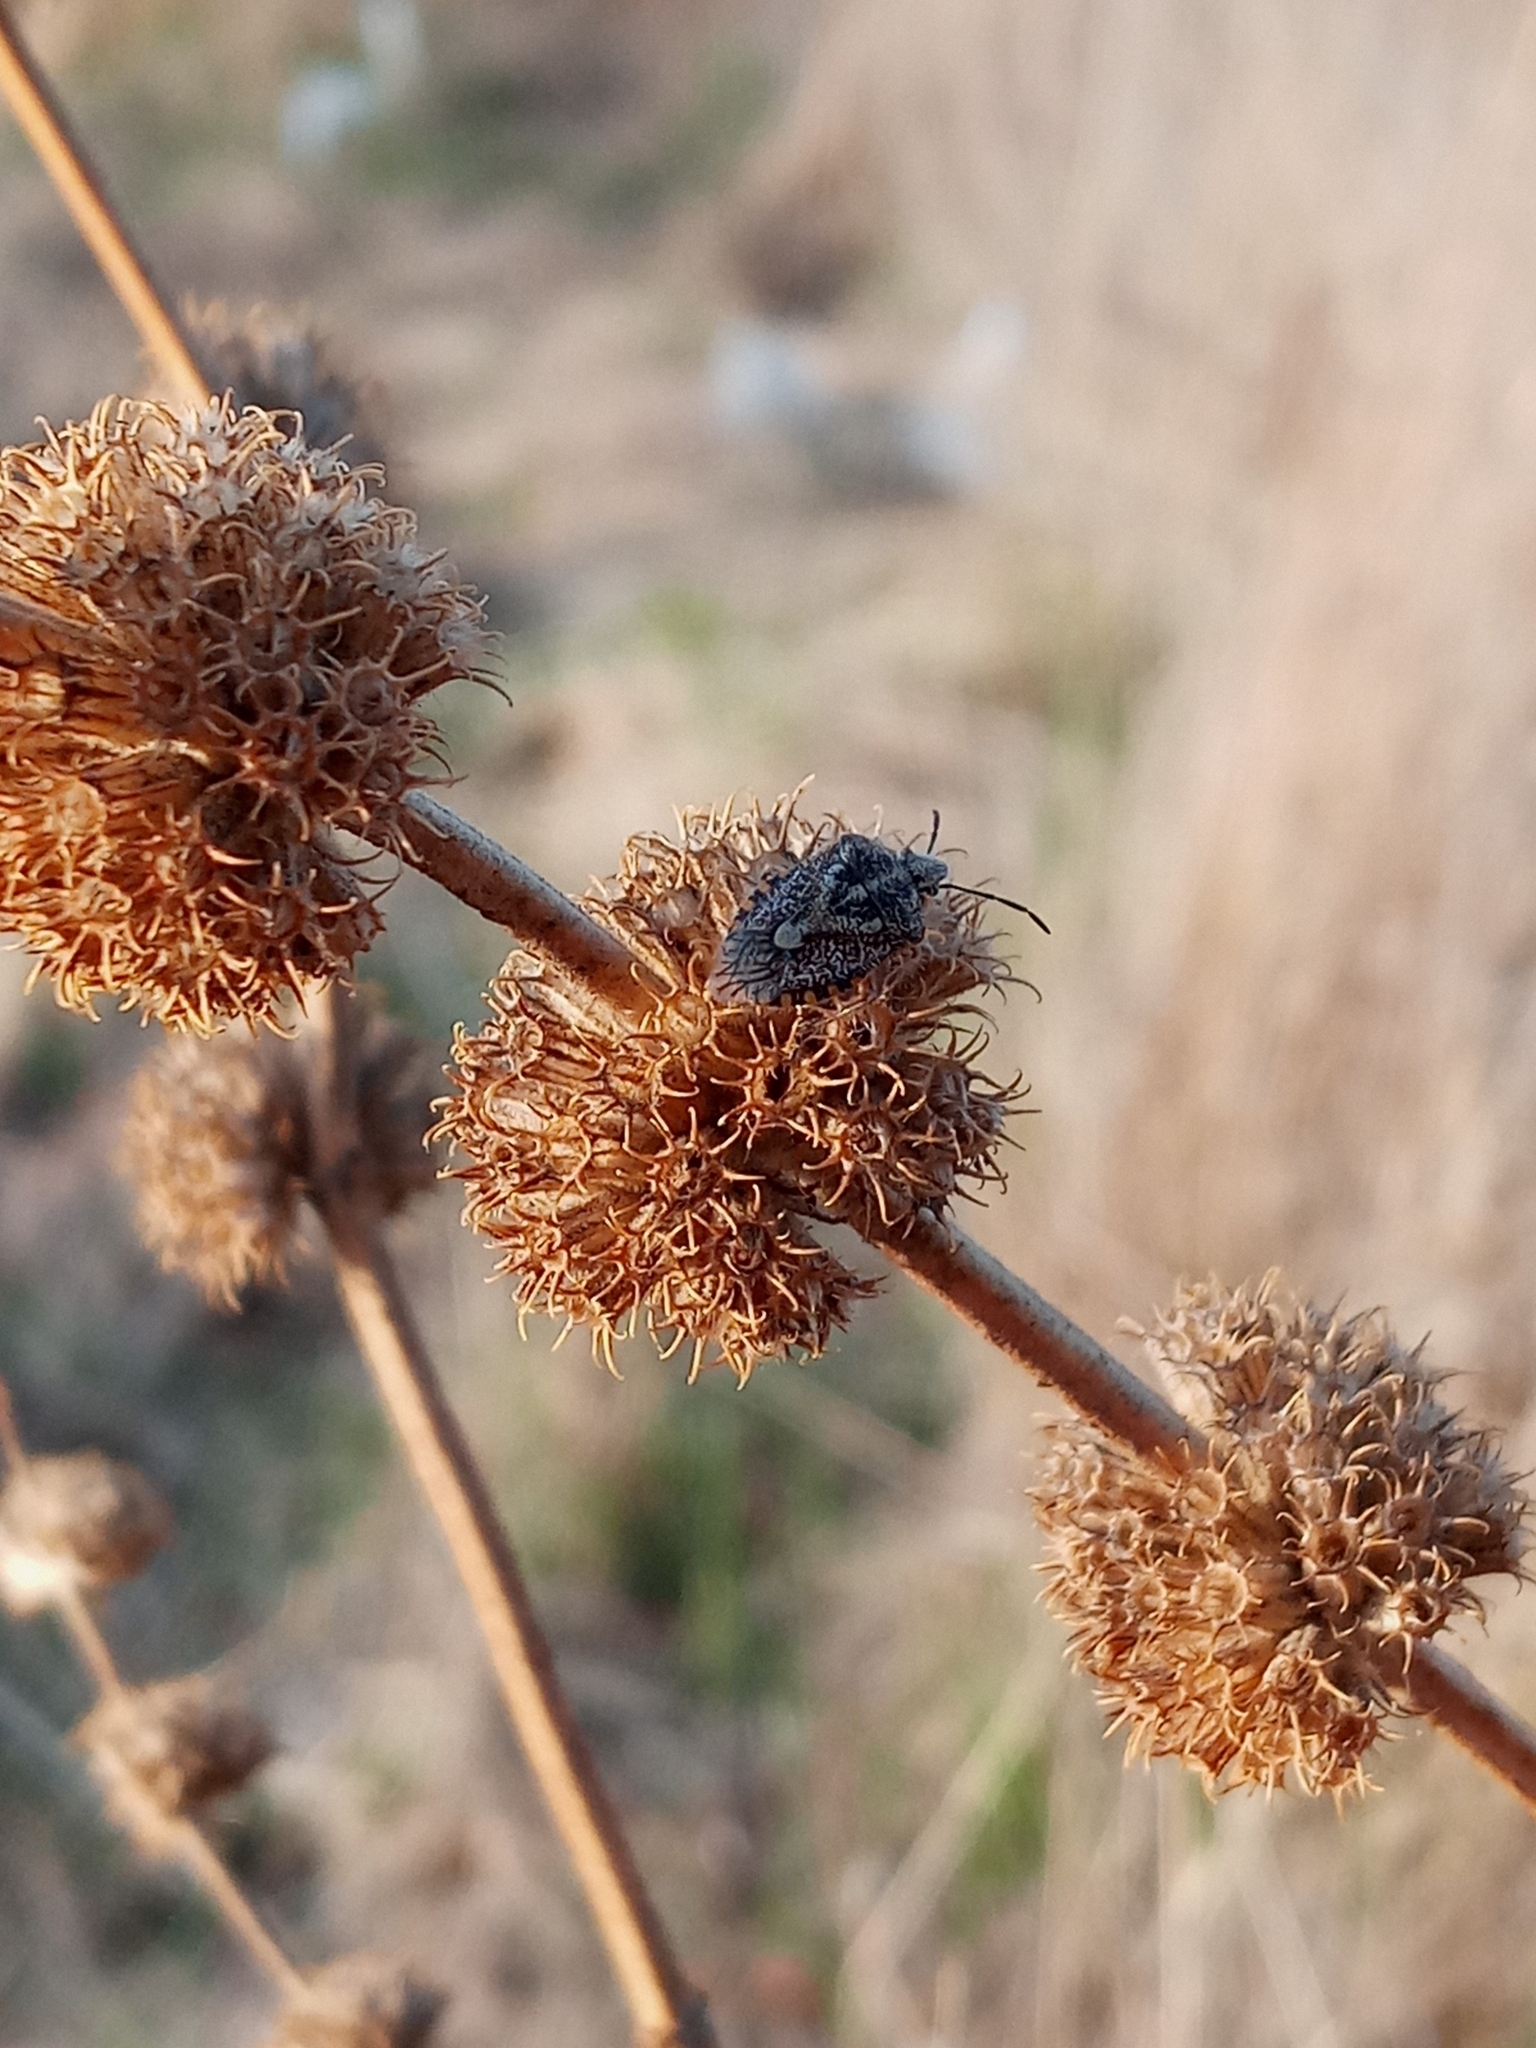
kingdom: Animalia
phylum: Arthropoda
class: Insecta
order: Hemiptera
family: Pentatomidae
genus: Agonoscelis
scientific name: Agonoscelis puberula
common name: African cluster bug
